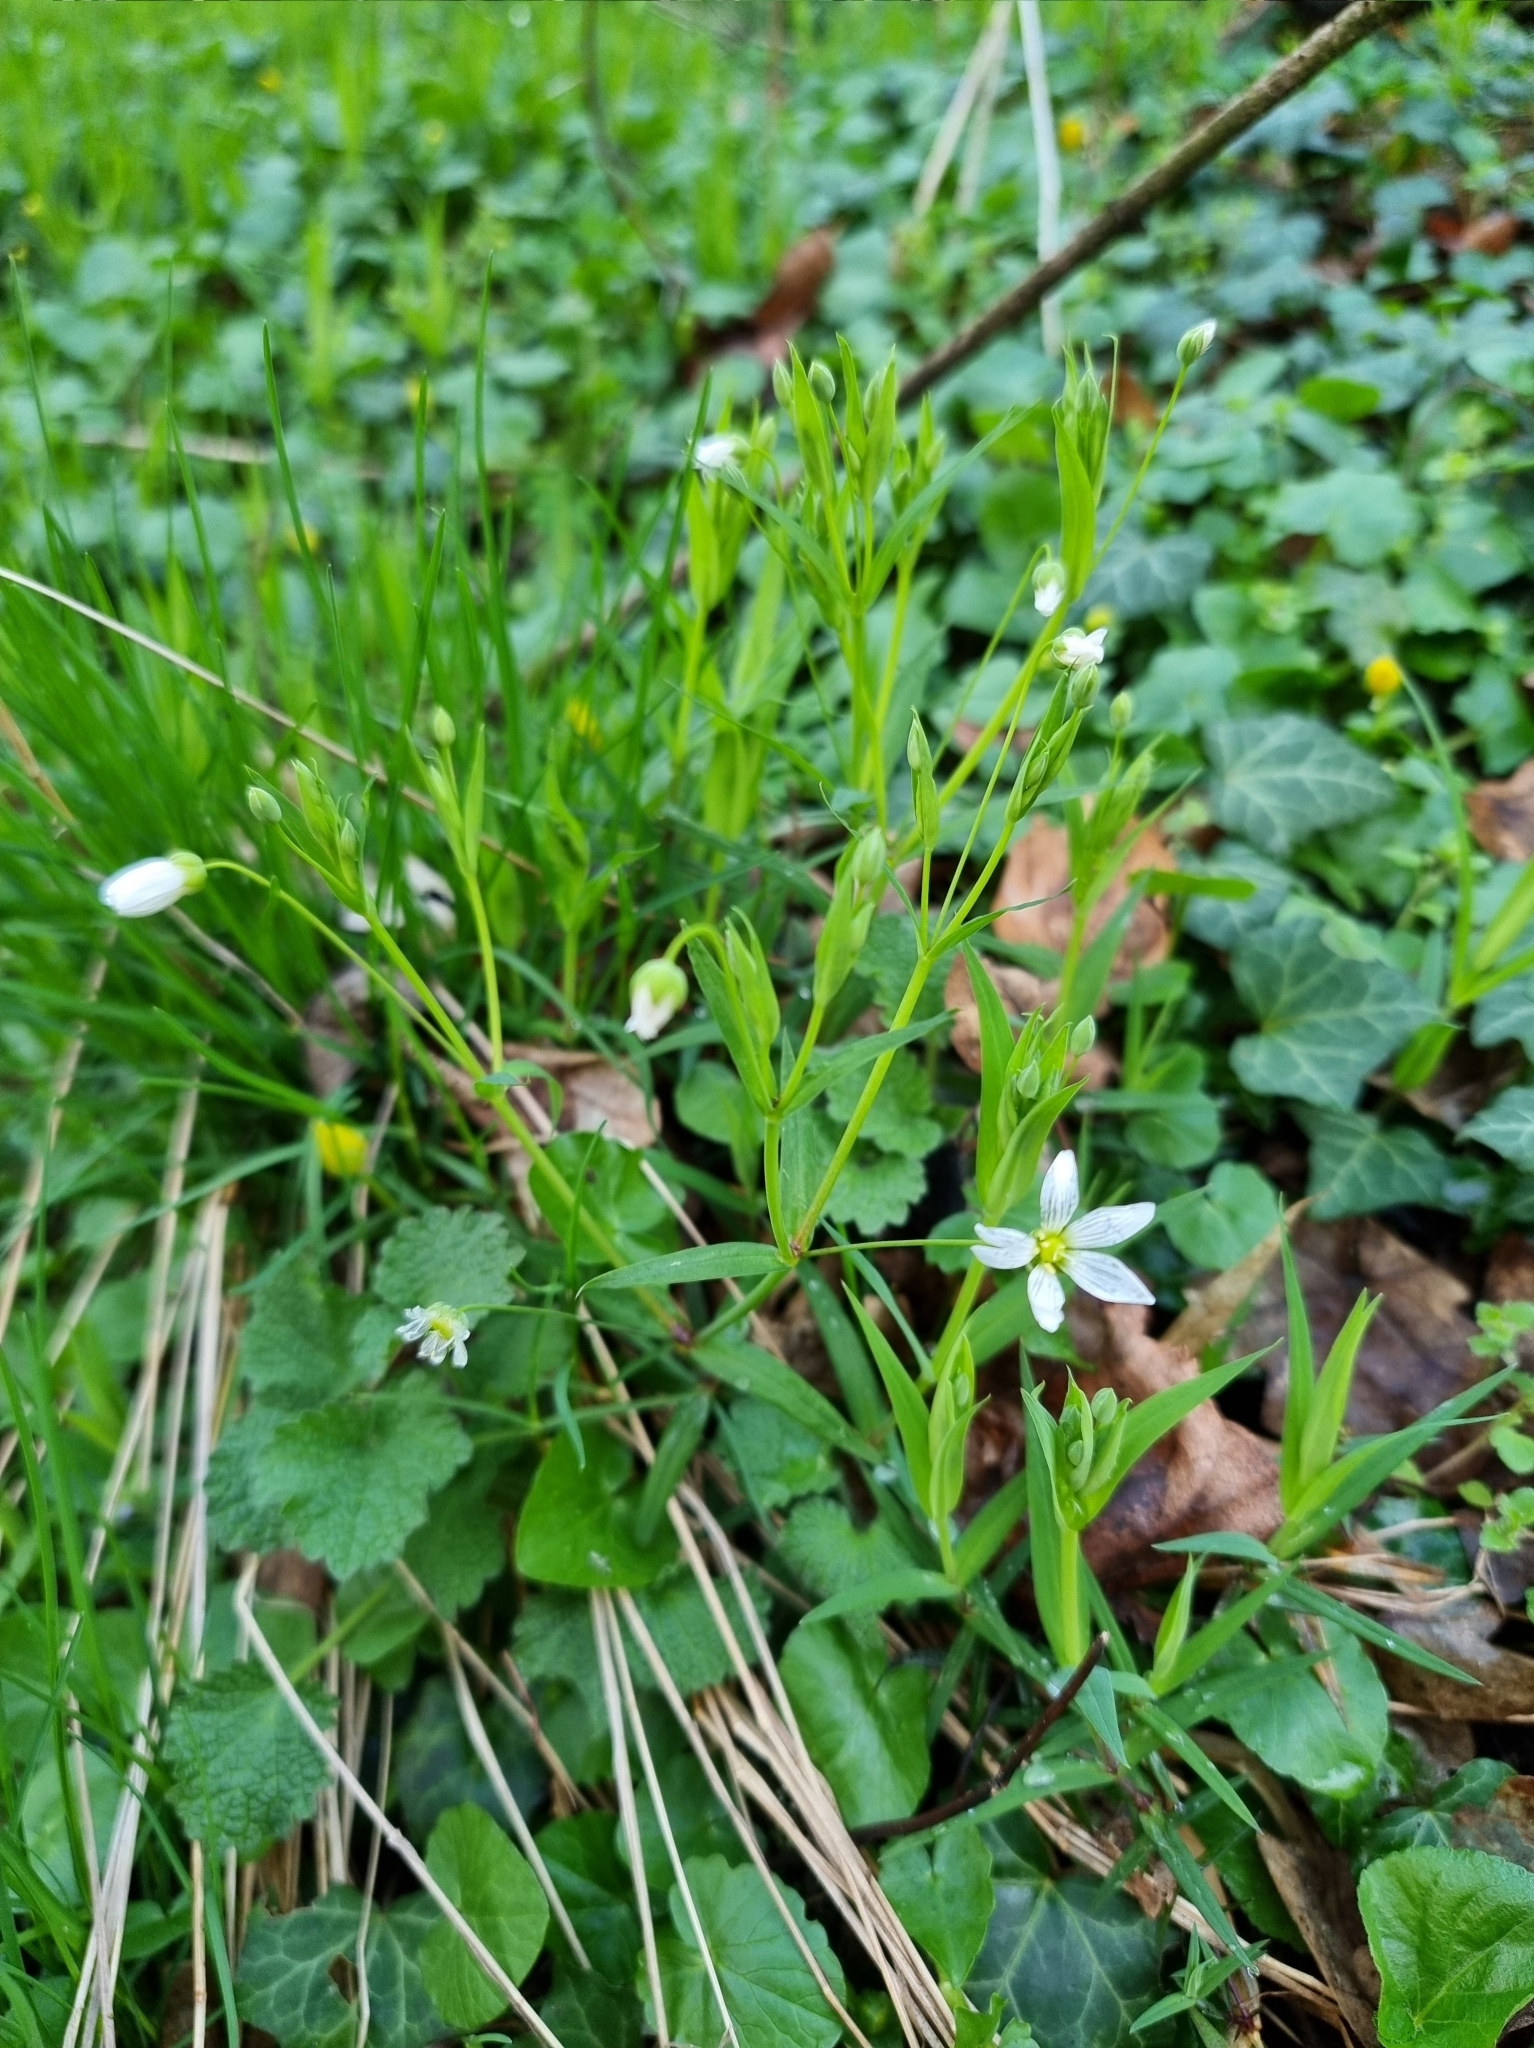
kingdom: Plantae
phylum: Tracheophyta
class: Magnoliopsida
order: Caryophyllales
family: Caryophyllaceae
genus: Rabelera
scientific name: Rabelera holostea
